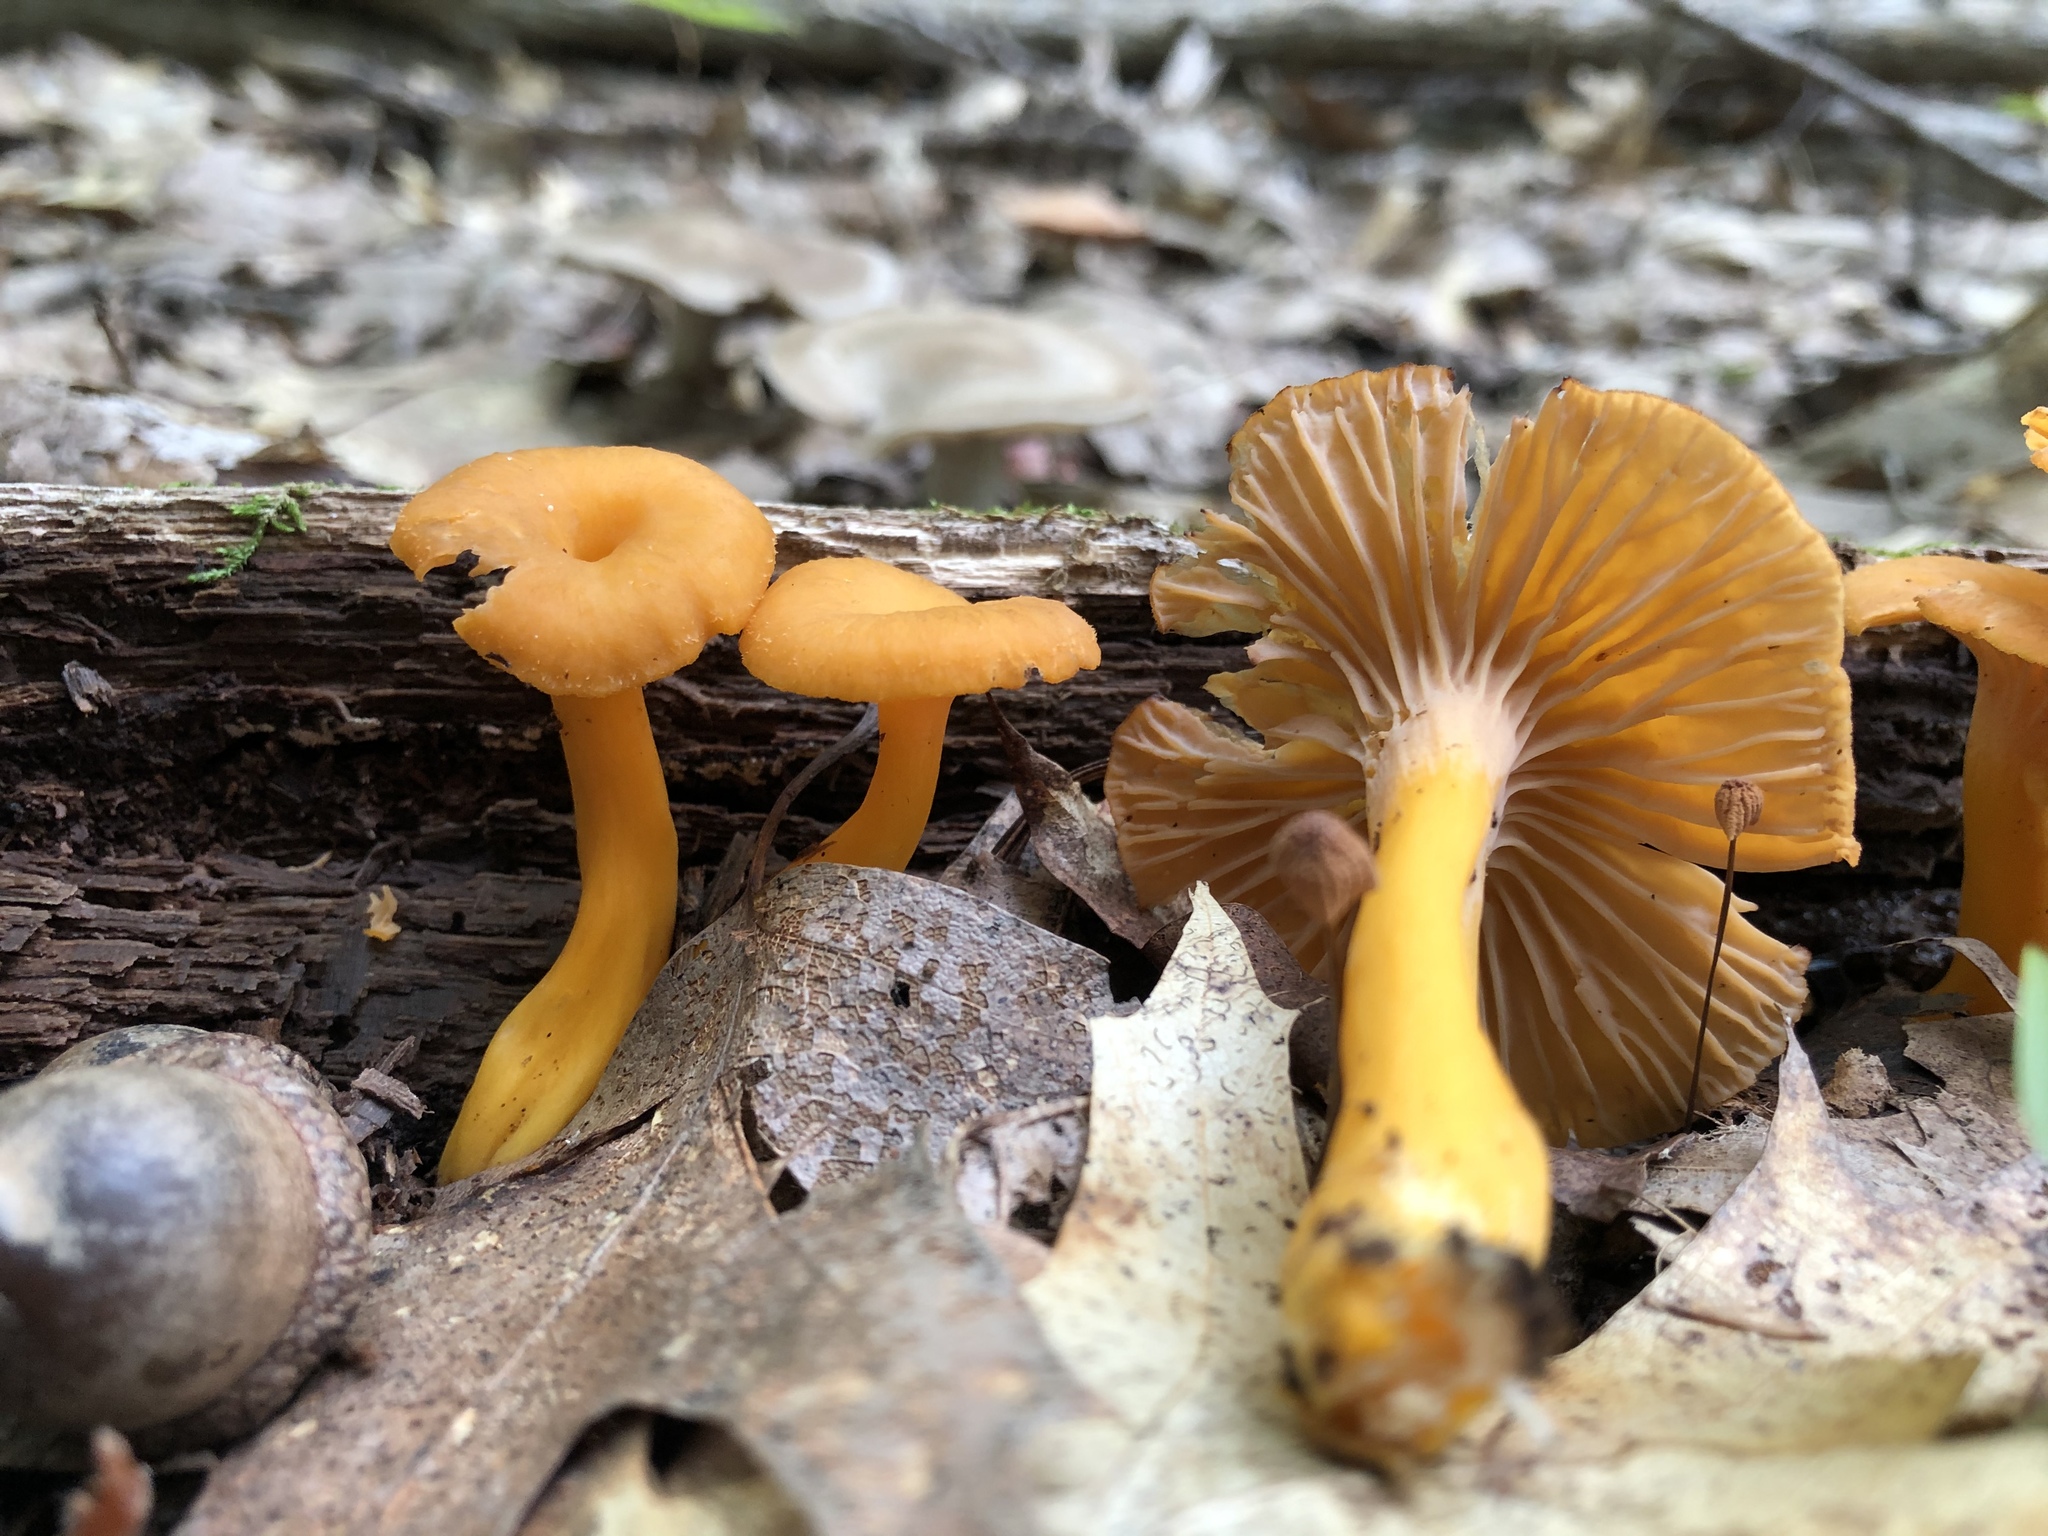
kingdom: Fungi
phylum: Basidiomycota
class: Agaricomycetes
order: Cantharellales
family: Hydnaceae
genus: Craterellus
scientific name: Craterellus ignicolor
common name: Flame chanterelle
